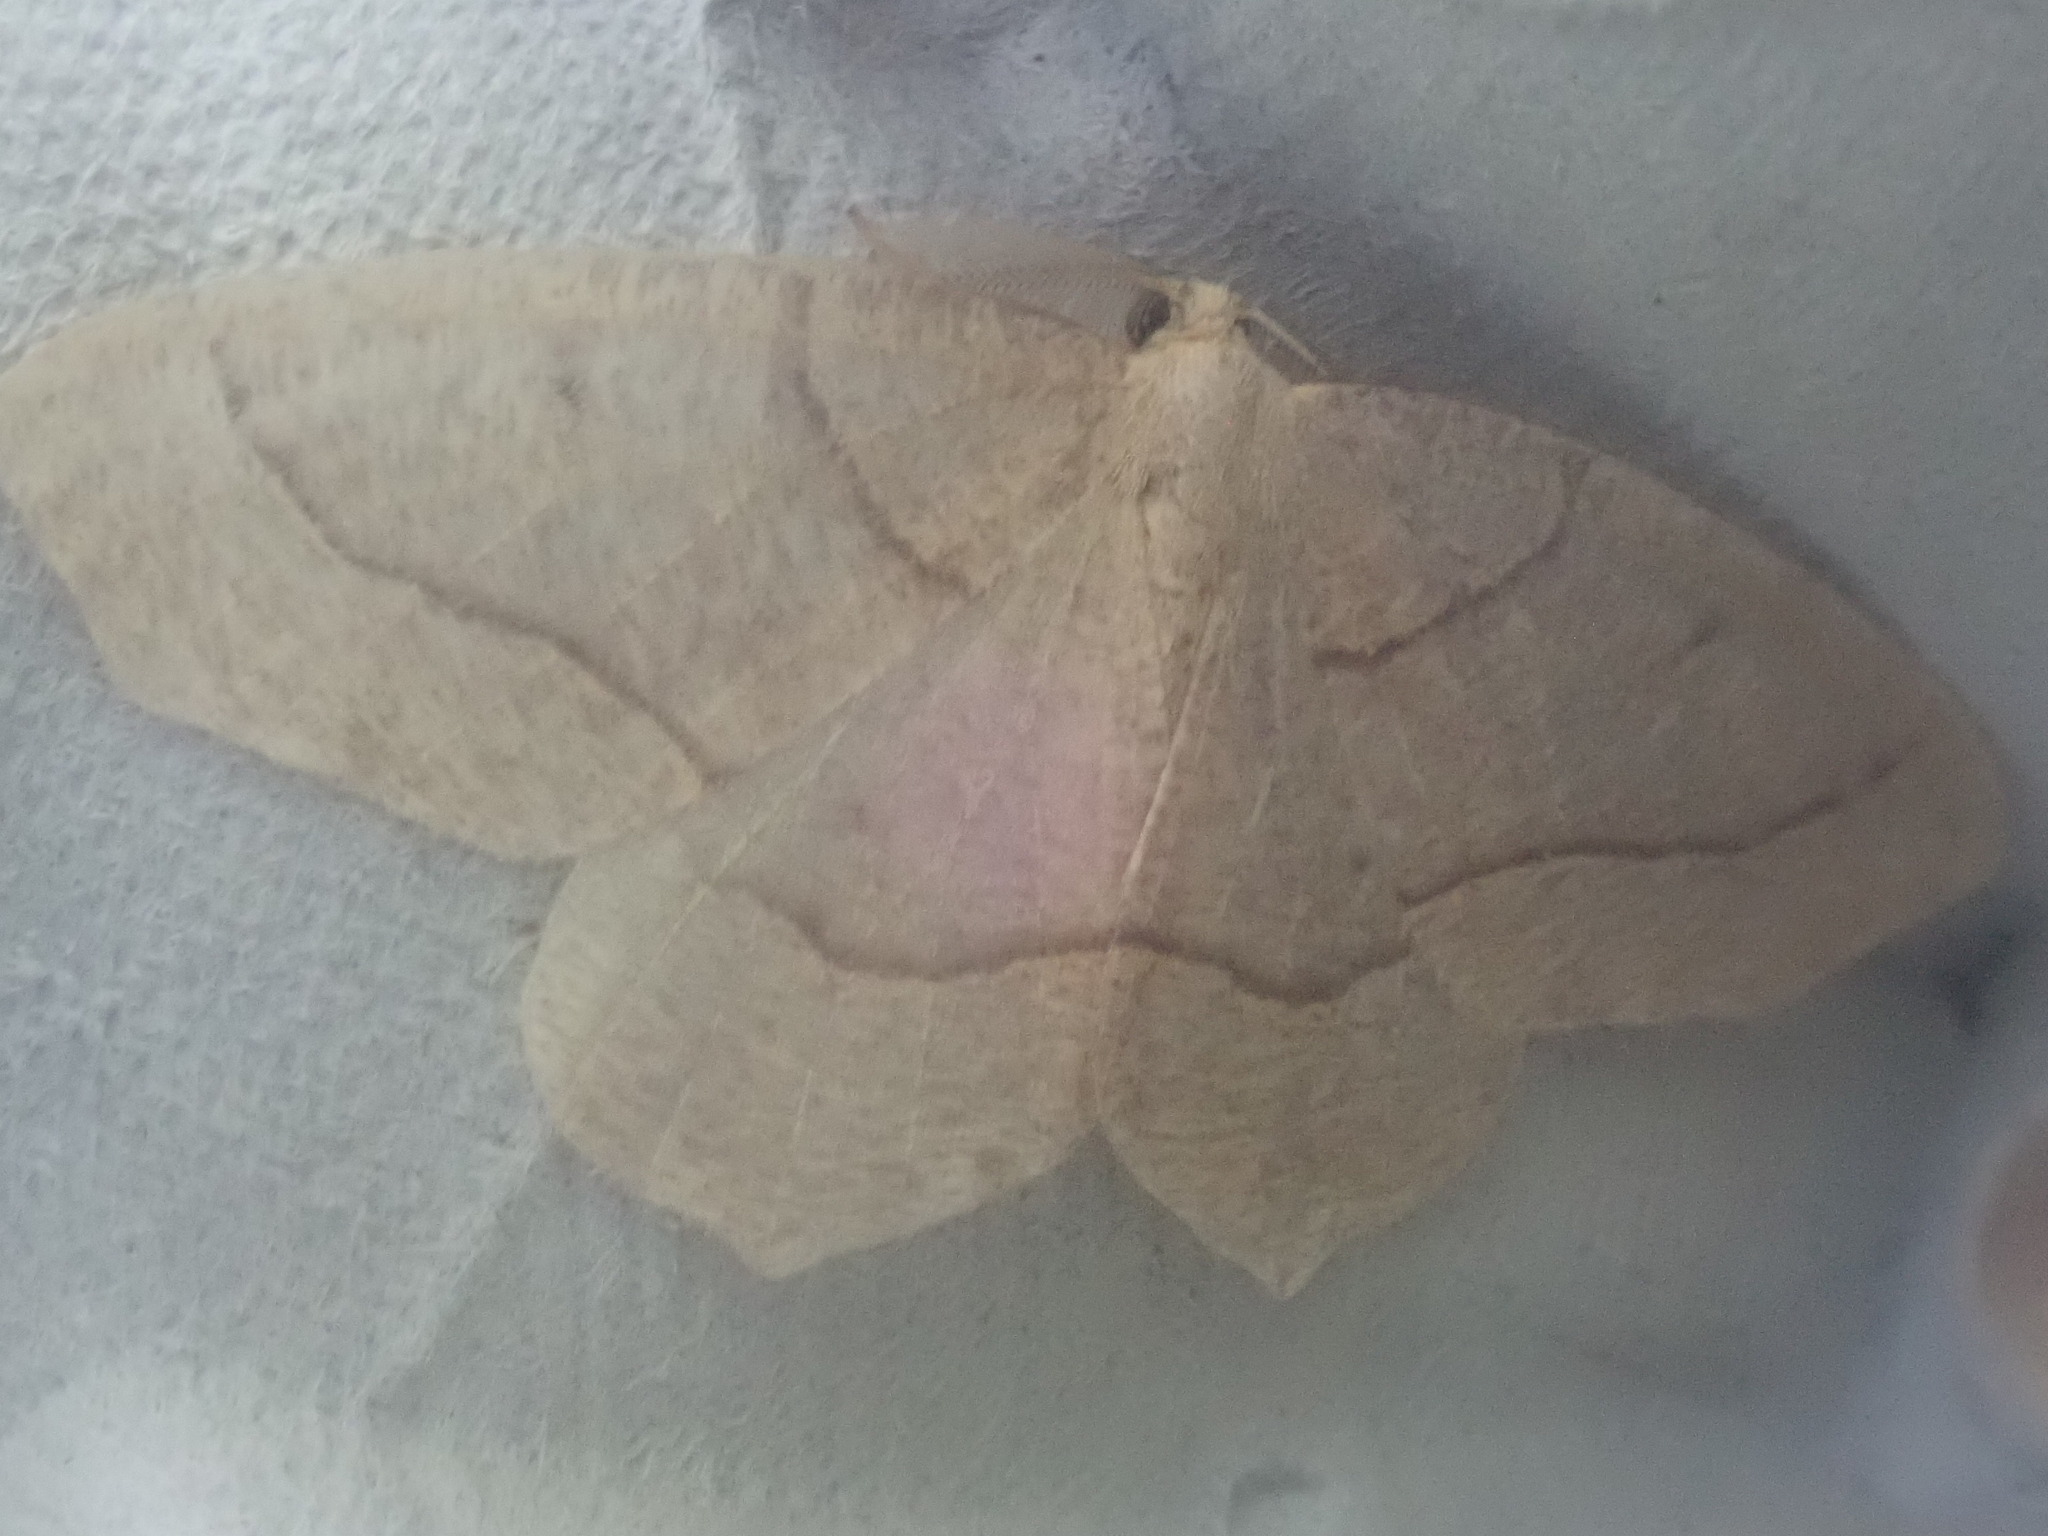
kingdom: Animalia
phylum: Arthropoda
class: Insecta
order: Lepidoptera
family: Geometridae
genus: Lambdina
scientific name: Lambdina fiscellaria
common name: Hemlock looper
